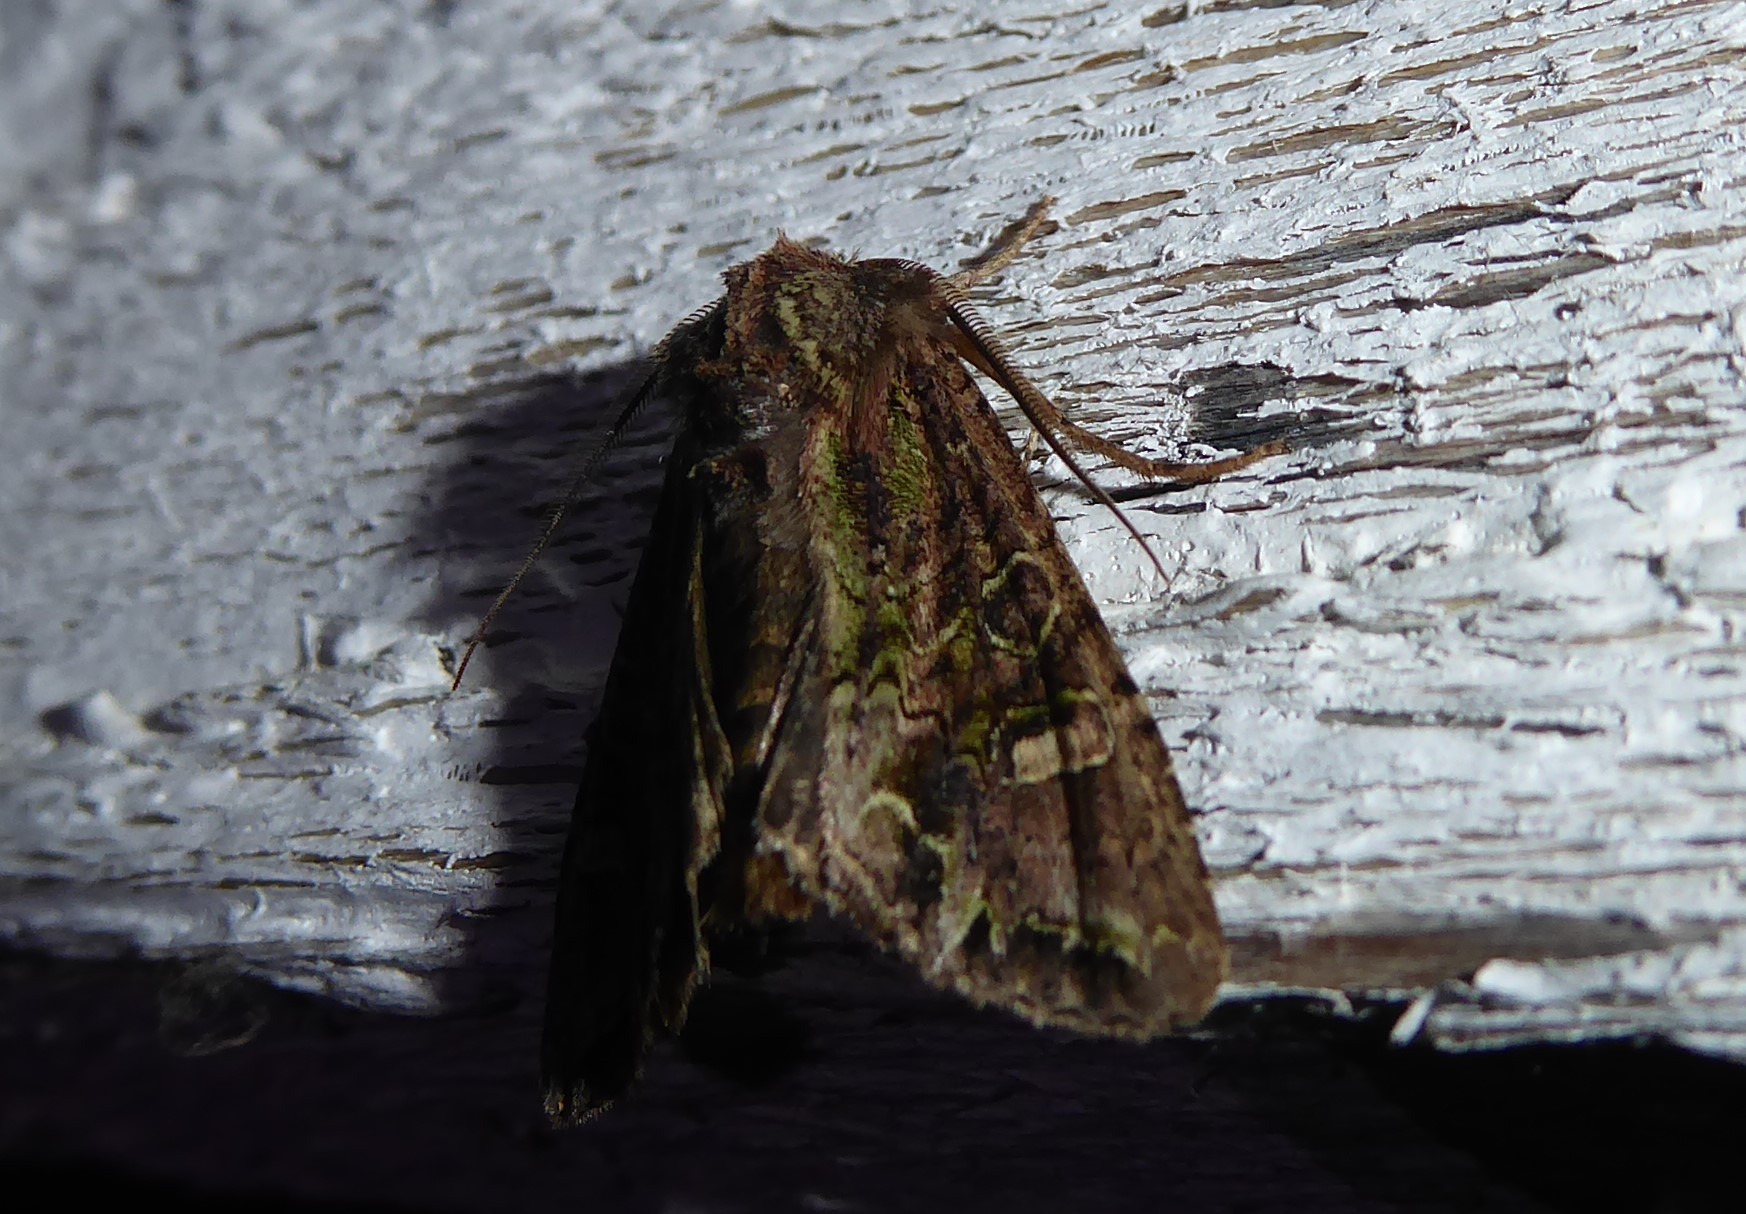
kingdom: Animalia
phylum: Arthropoda
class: Insecta
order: Lepidoptera
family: Noctuidae
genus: Ichneutica
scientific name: Ichneutica insignis
